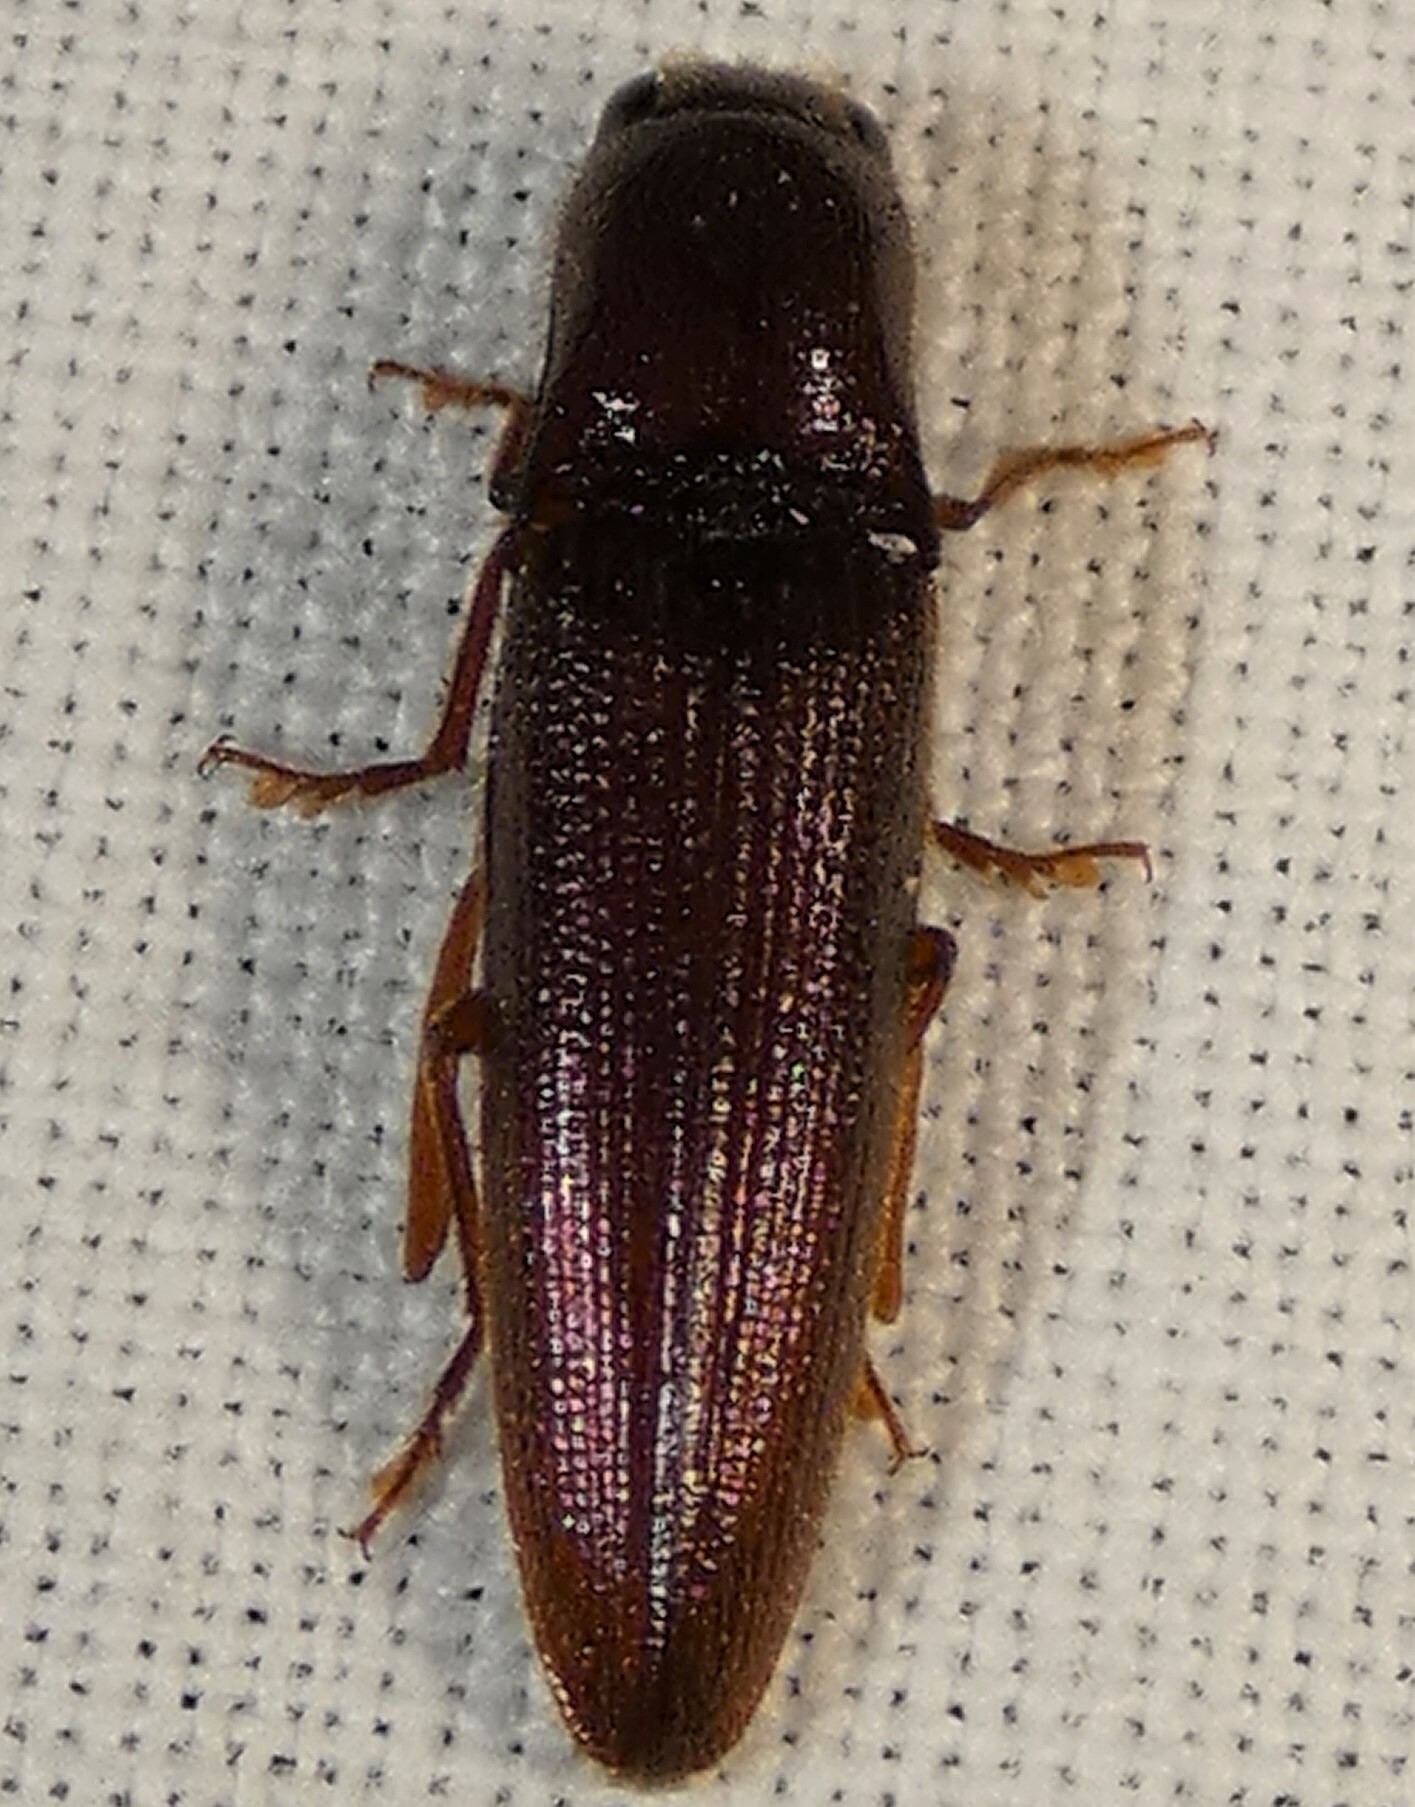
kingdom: Animalia
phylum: Arthropoda
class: Insecta
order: Coleoptera
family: Elateridae
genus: Dicrepidius
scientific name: Dicrepidius palmatus
